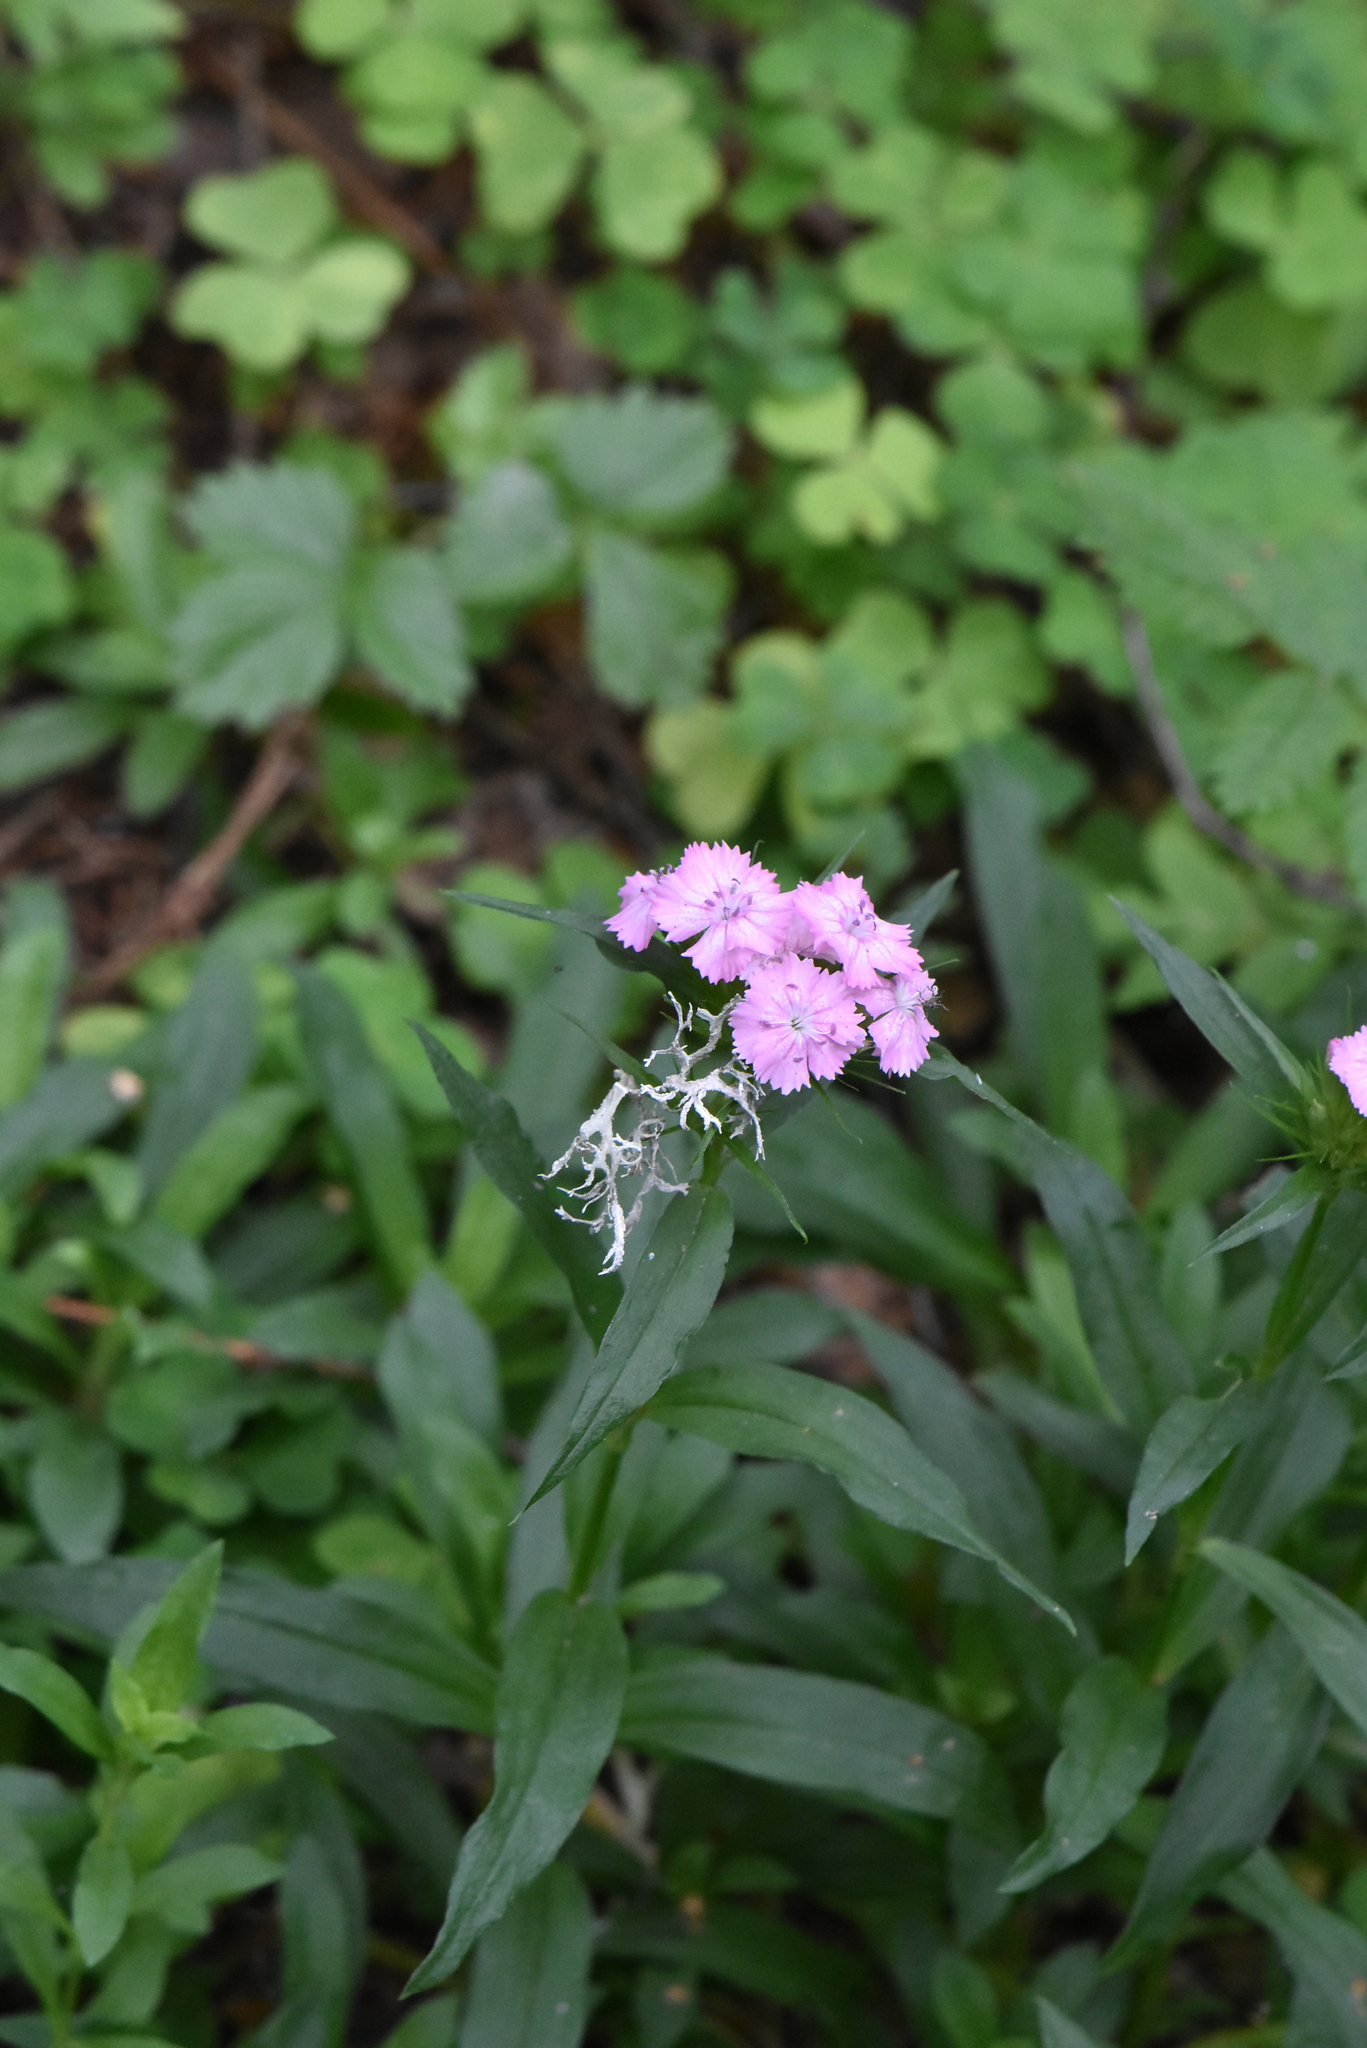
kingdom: Plantae
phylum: Tracheophyta
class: Magnoliopsida
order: Caryophyllales
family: Caryophyllaceae
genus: Dianthus
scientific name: Dianthus barbatus
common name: Sweet-william
